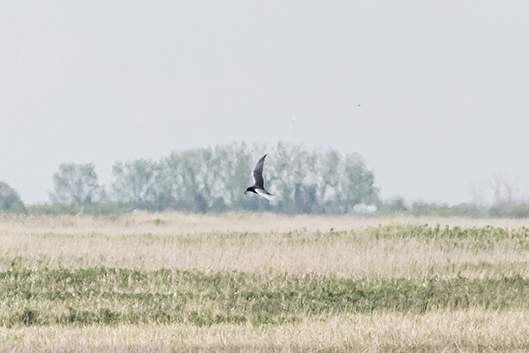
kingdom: Animalia
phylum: Chordata
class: Aves
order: Charadriiformes
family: Laridae
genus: Chlidonias
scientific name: Chlidonias niger
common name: Black tern
